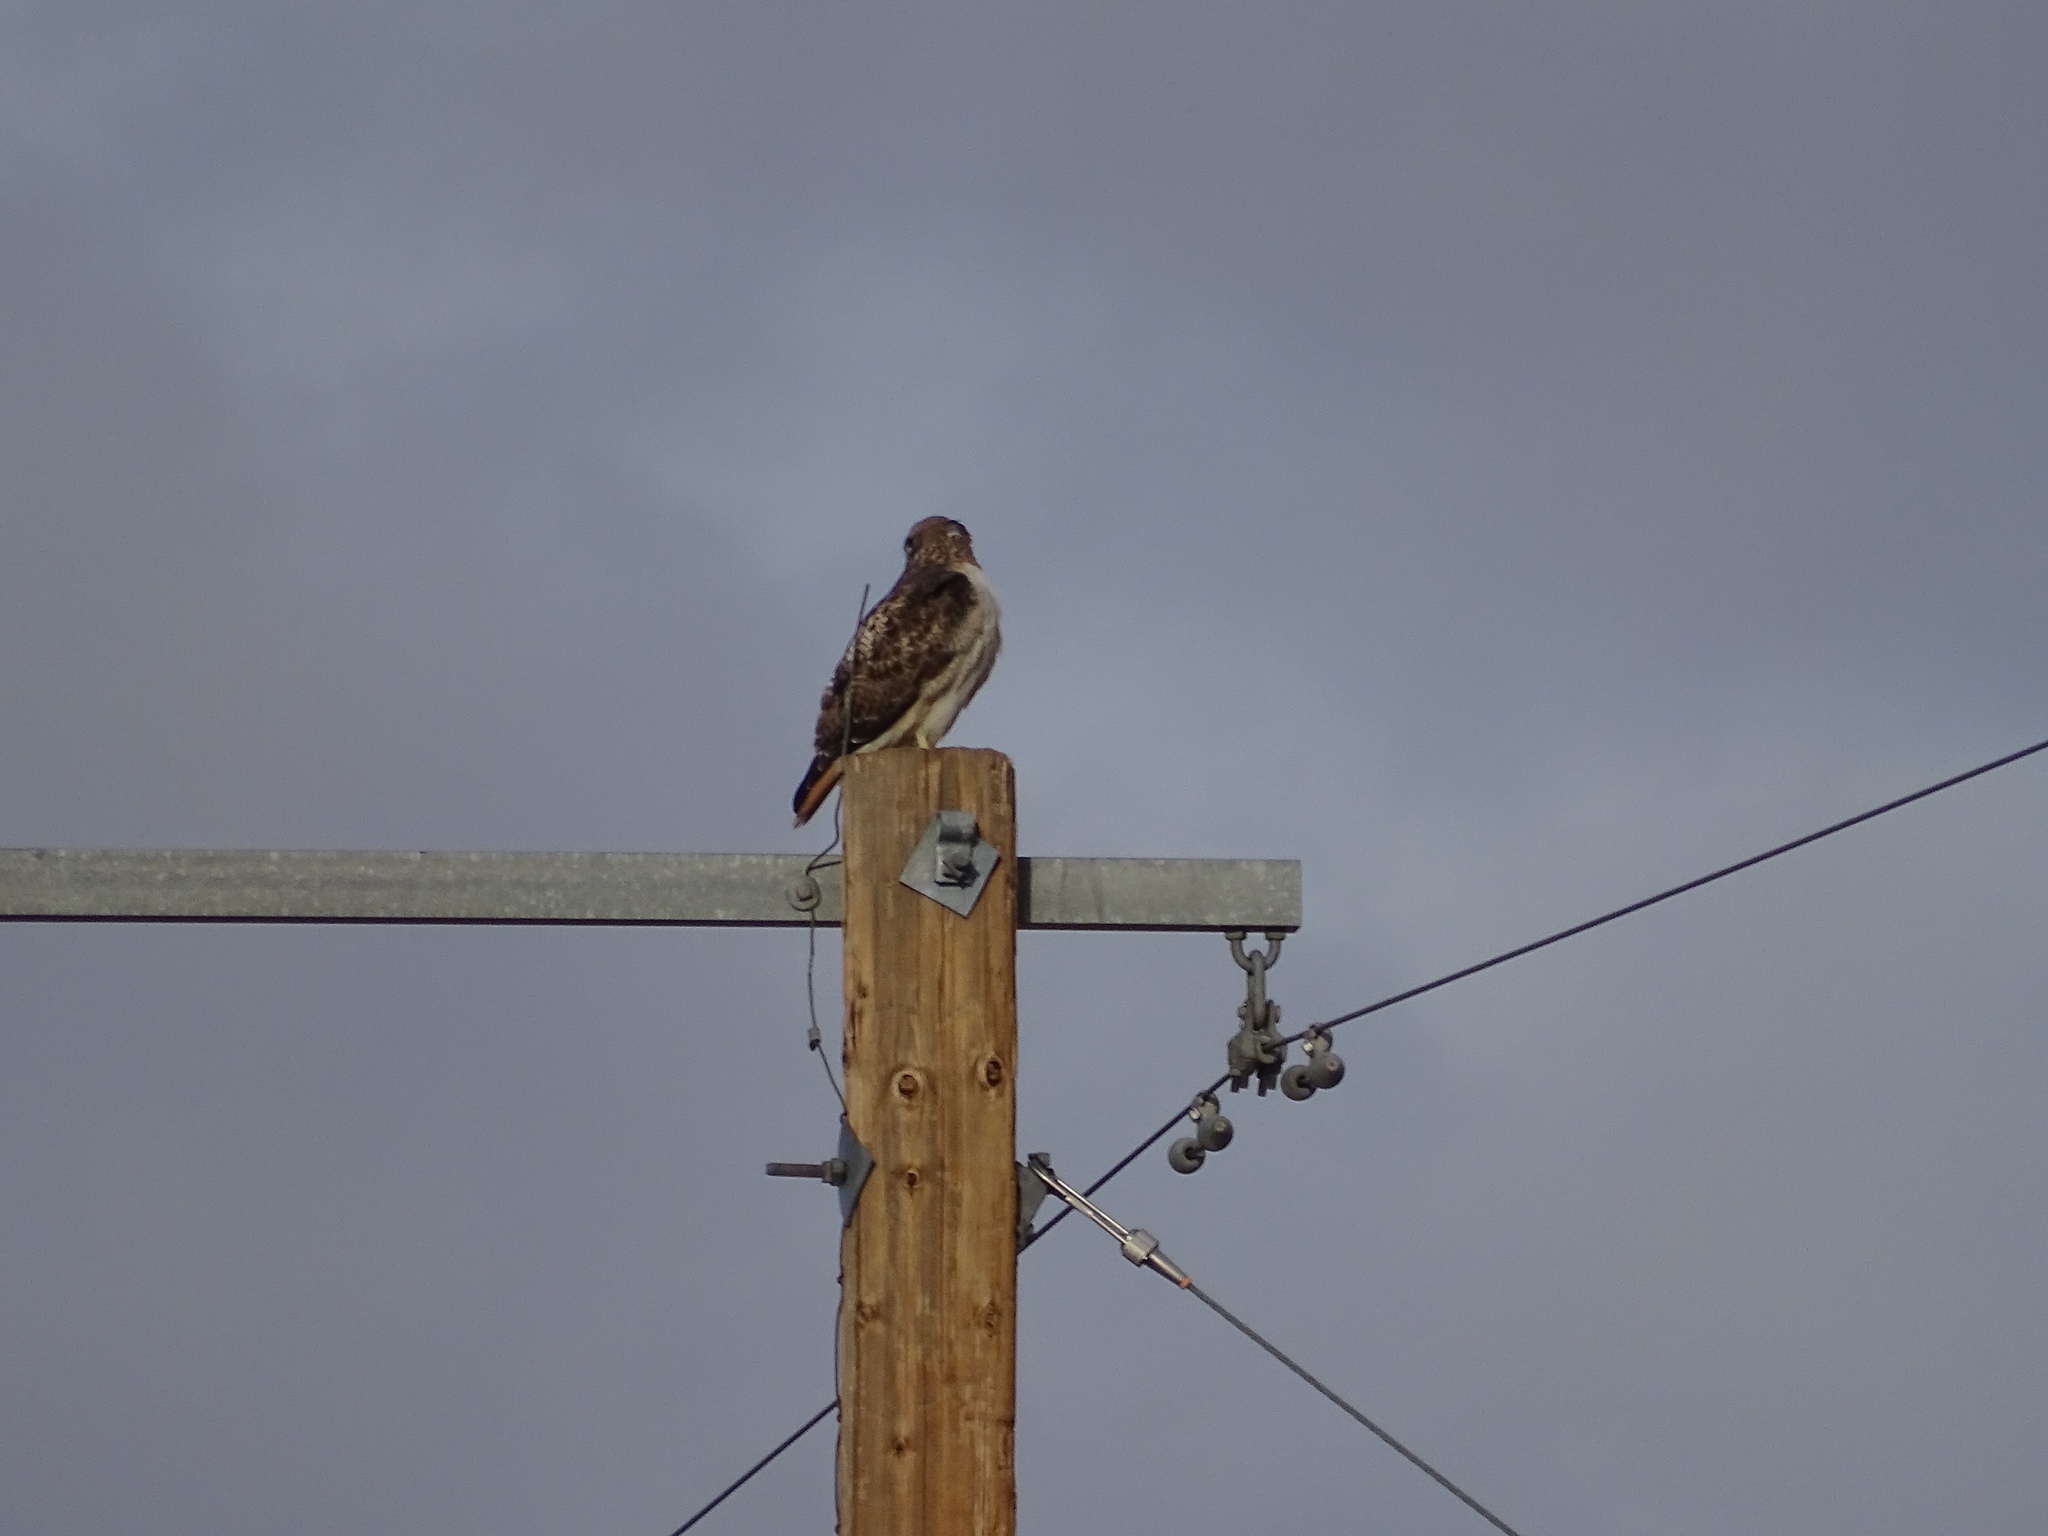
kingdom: Animalia
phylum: Chordata
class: Aves
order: Accipitriformes
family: Accipitridae
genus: Buteo
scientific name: Buteo jamaicensis
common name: Red-tailed hawk
